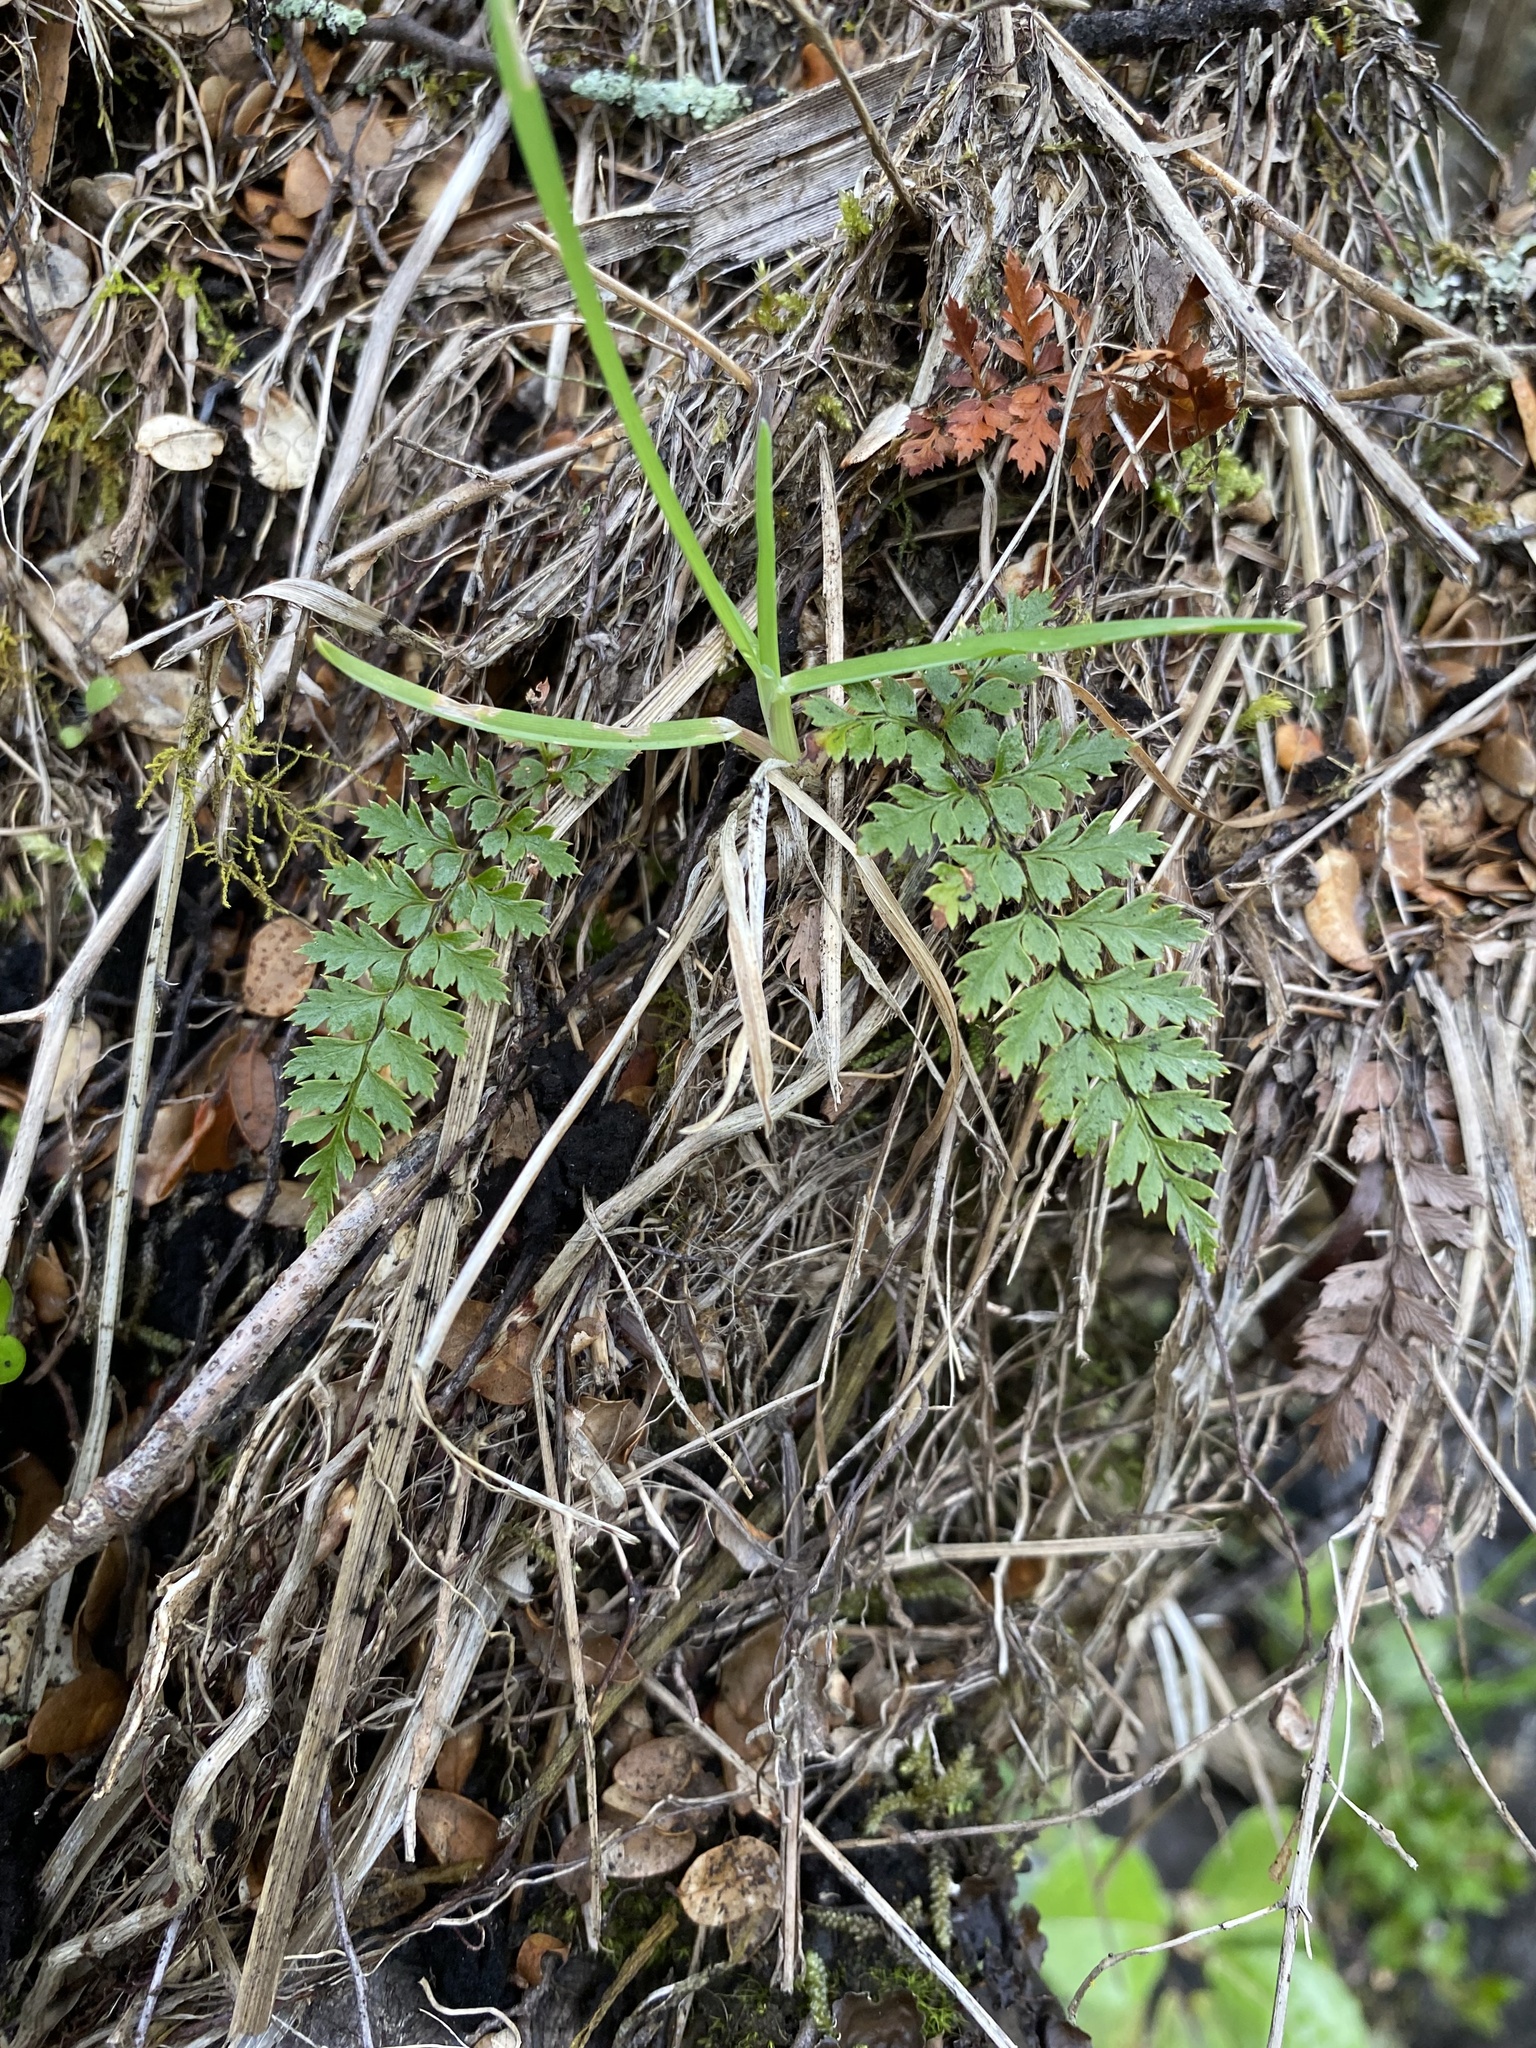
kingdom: Plantae
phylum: Tracheophyta
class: Polypodiopsida
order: Polypodiales
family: Dryopteridaceae
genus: Polystichum
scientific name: Polystichum vestitum
